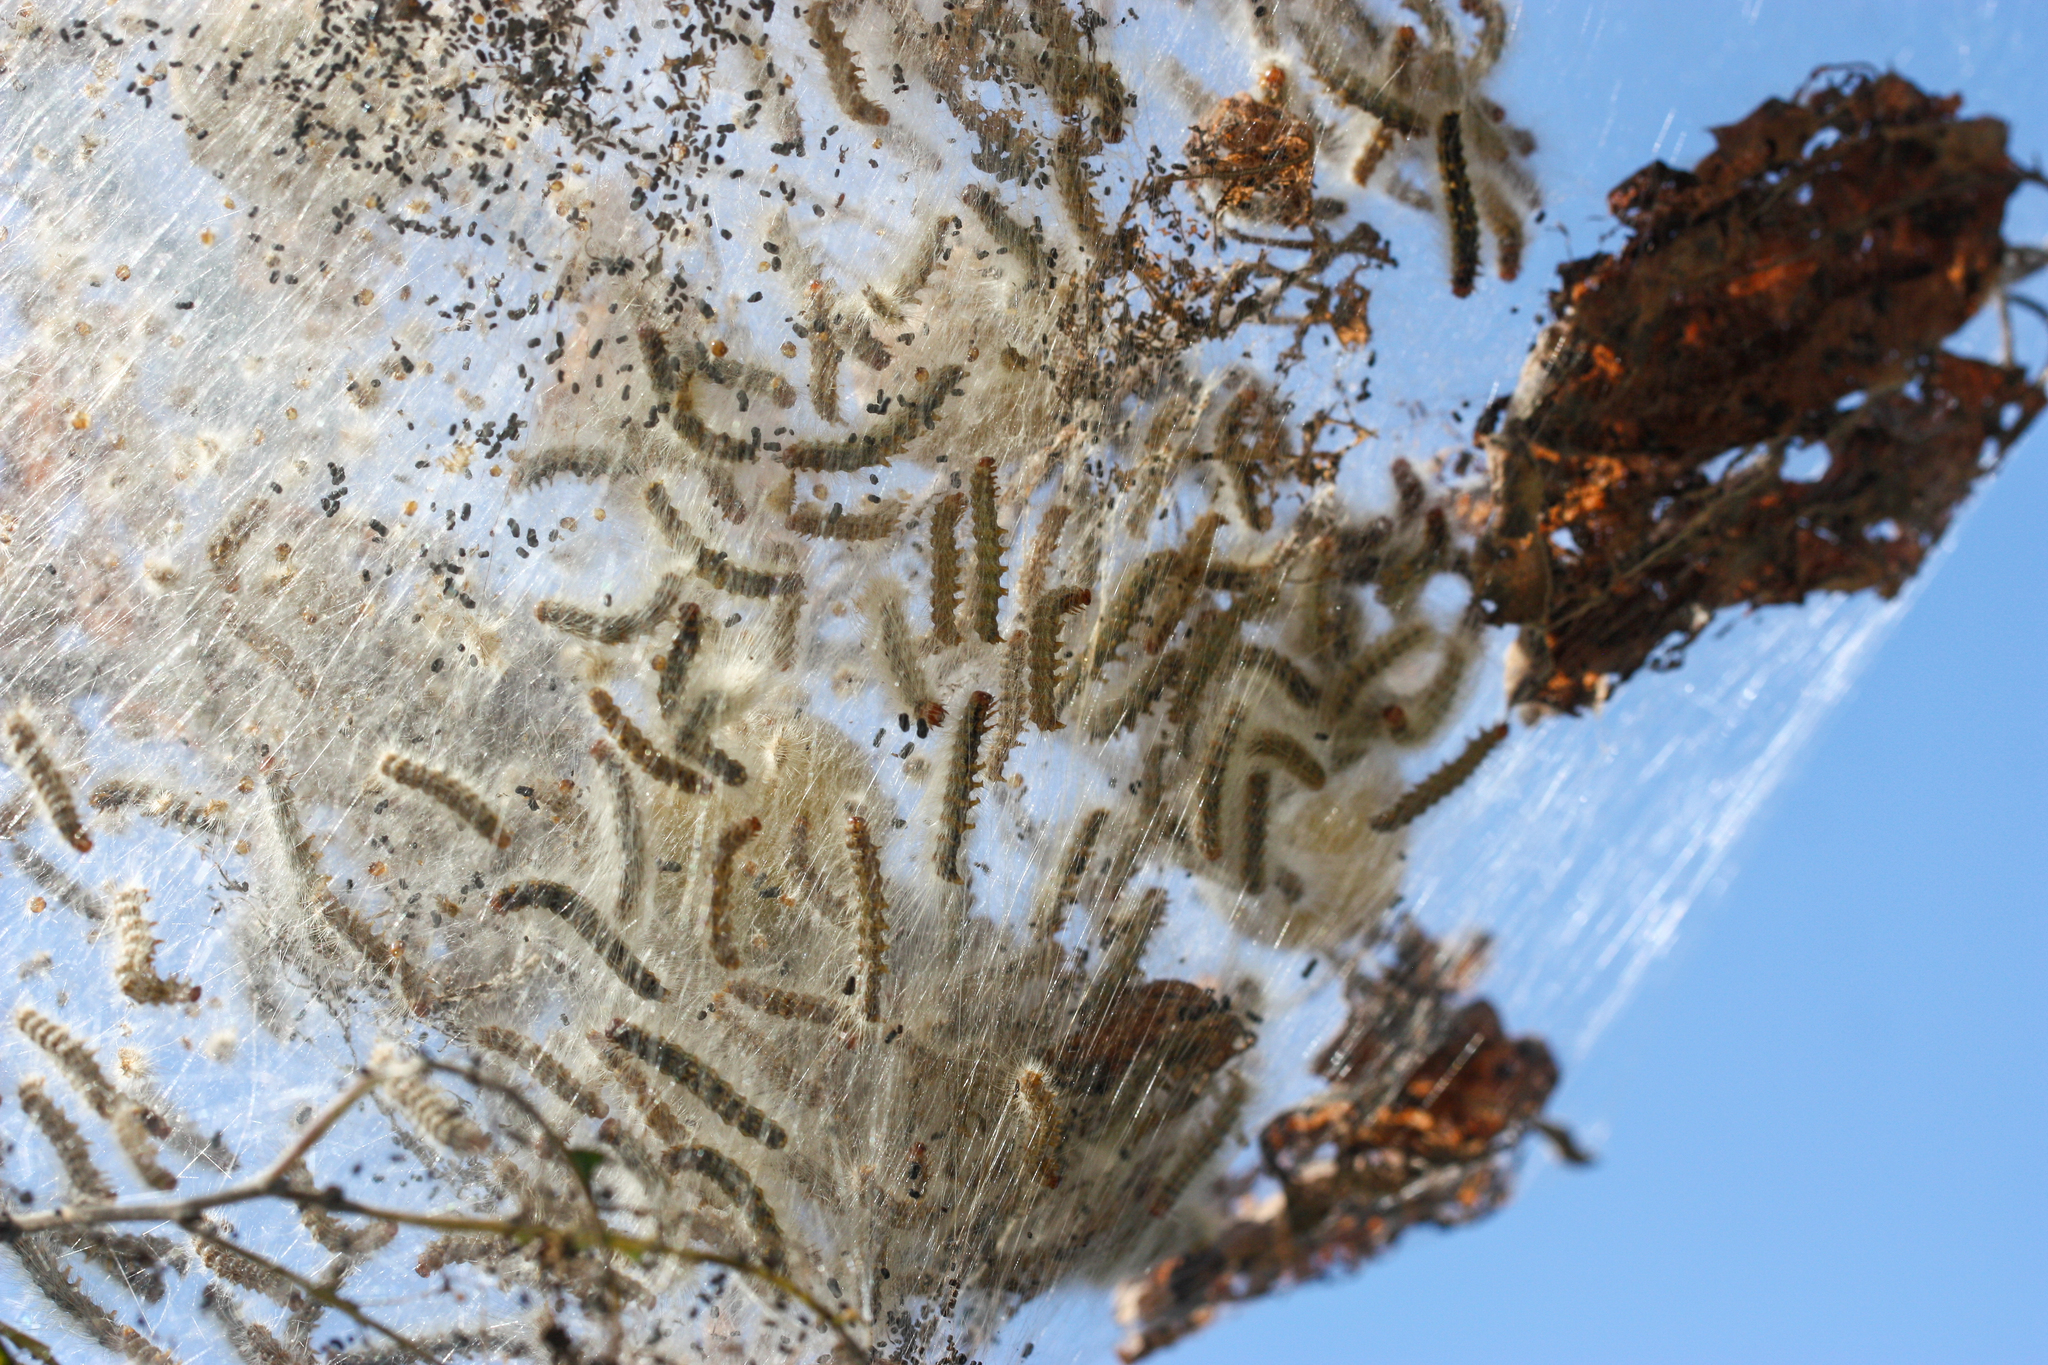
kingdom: Animalia
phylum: Arthropoda
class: Insecta
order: Lepidoptera
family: Erebidae
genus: Hyphantria
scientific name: Hyphantria cunea
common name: American white moth
